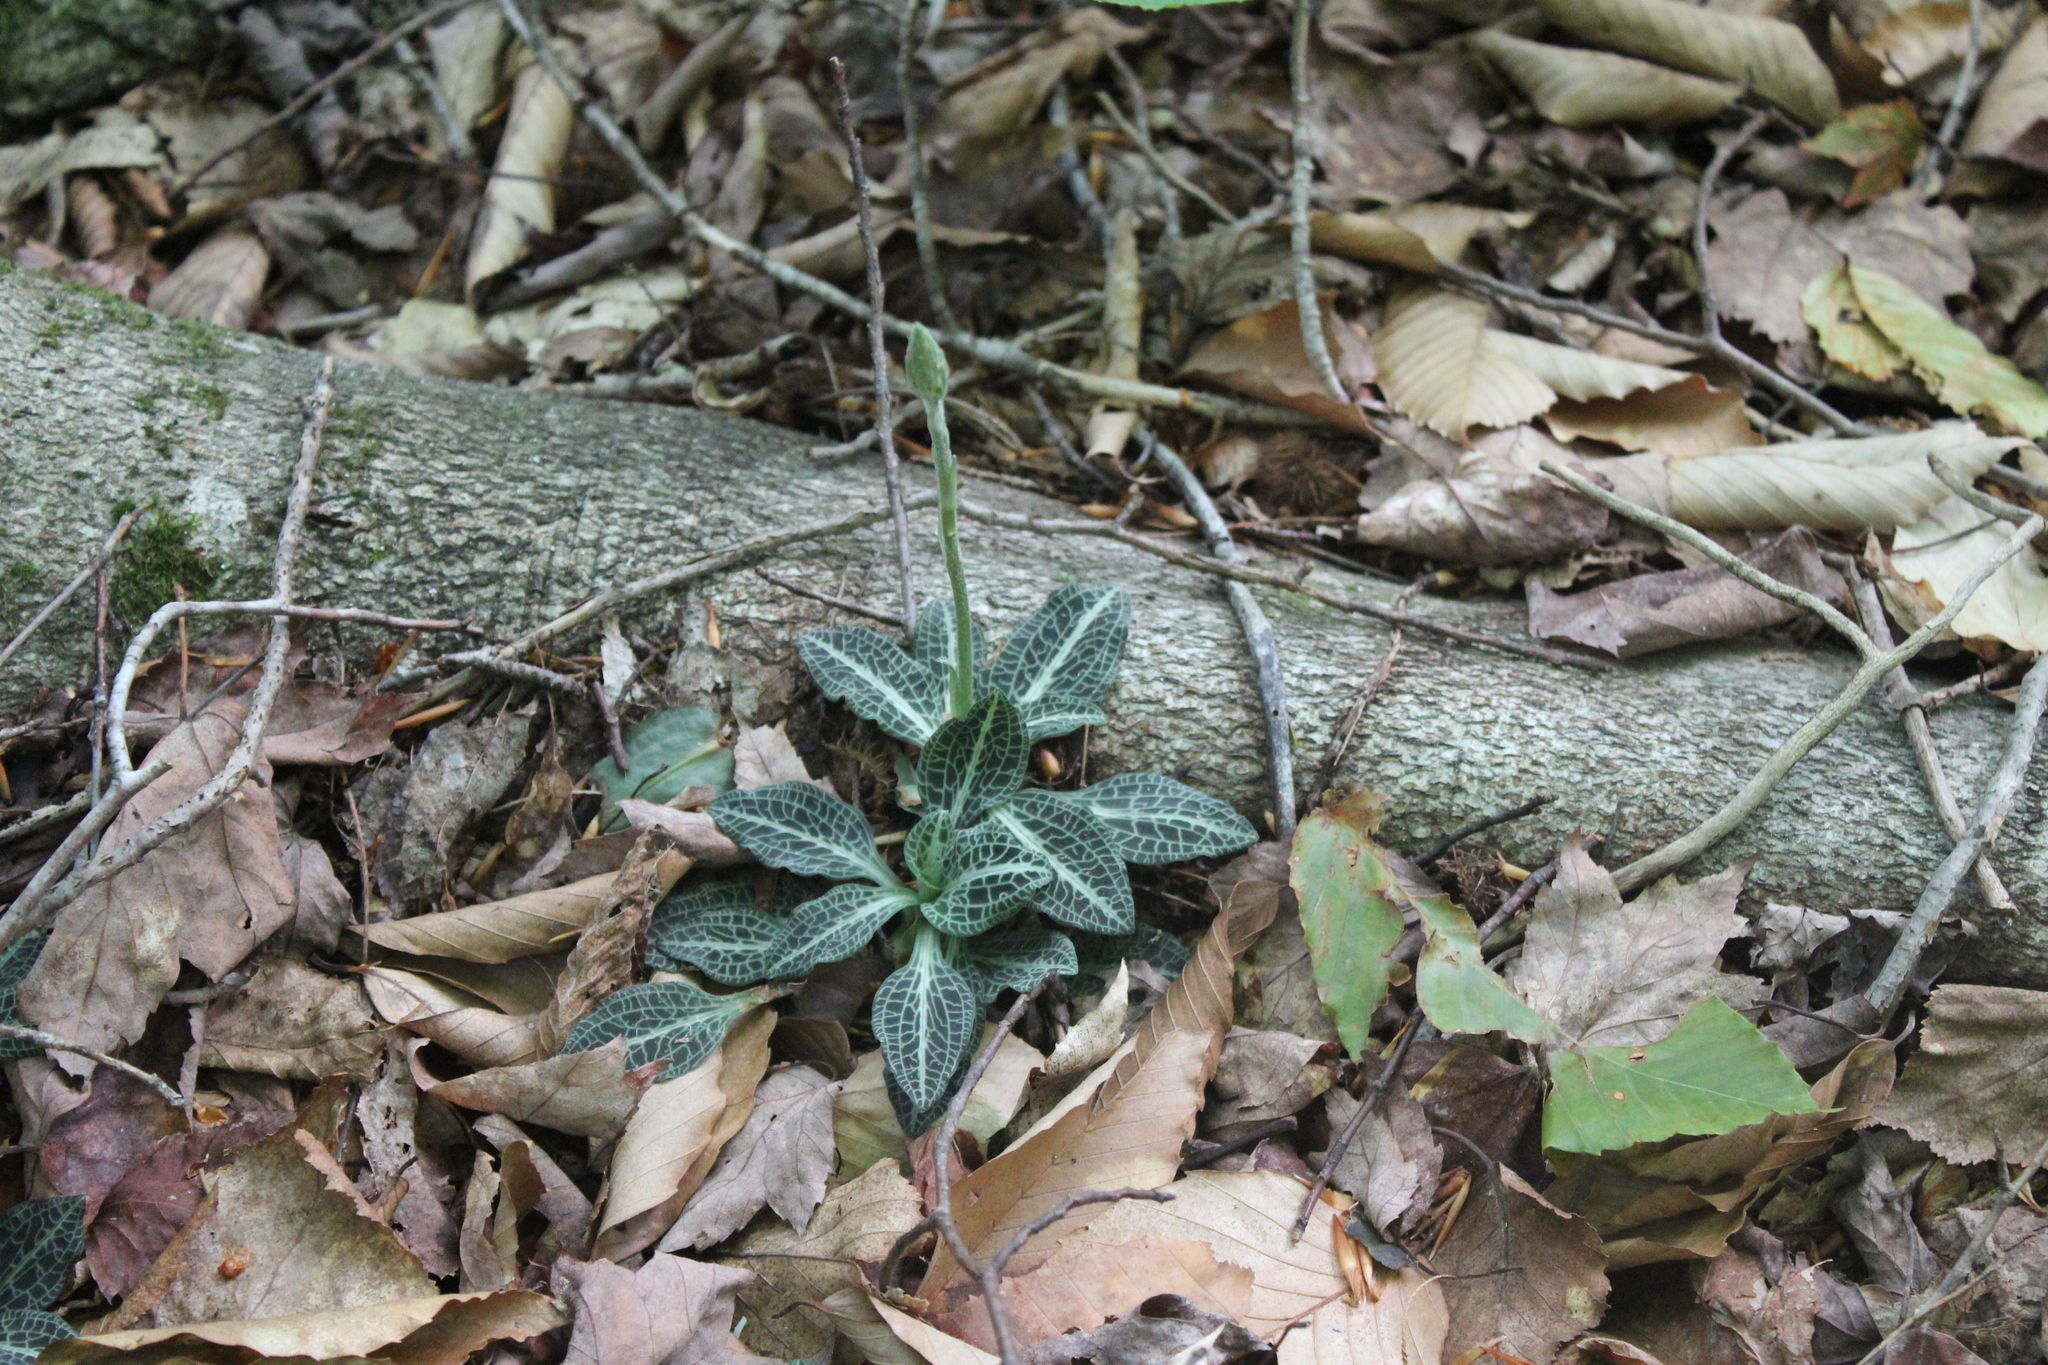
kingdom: Plantae
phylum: Tracheophyta
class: Liliopsida
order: Asparagales
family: Orchidaceae
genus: Goodyera
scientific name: Goodyera pubescens
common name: Downy rattlesnake-plantain
